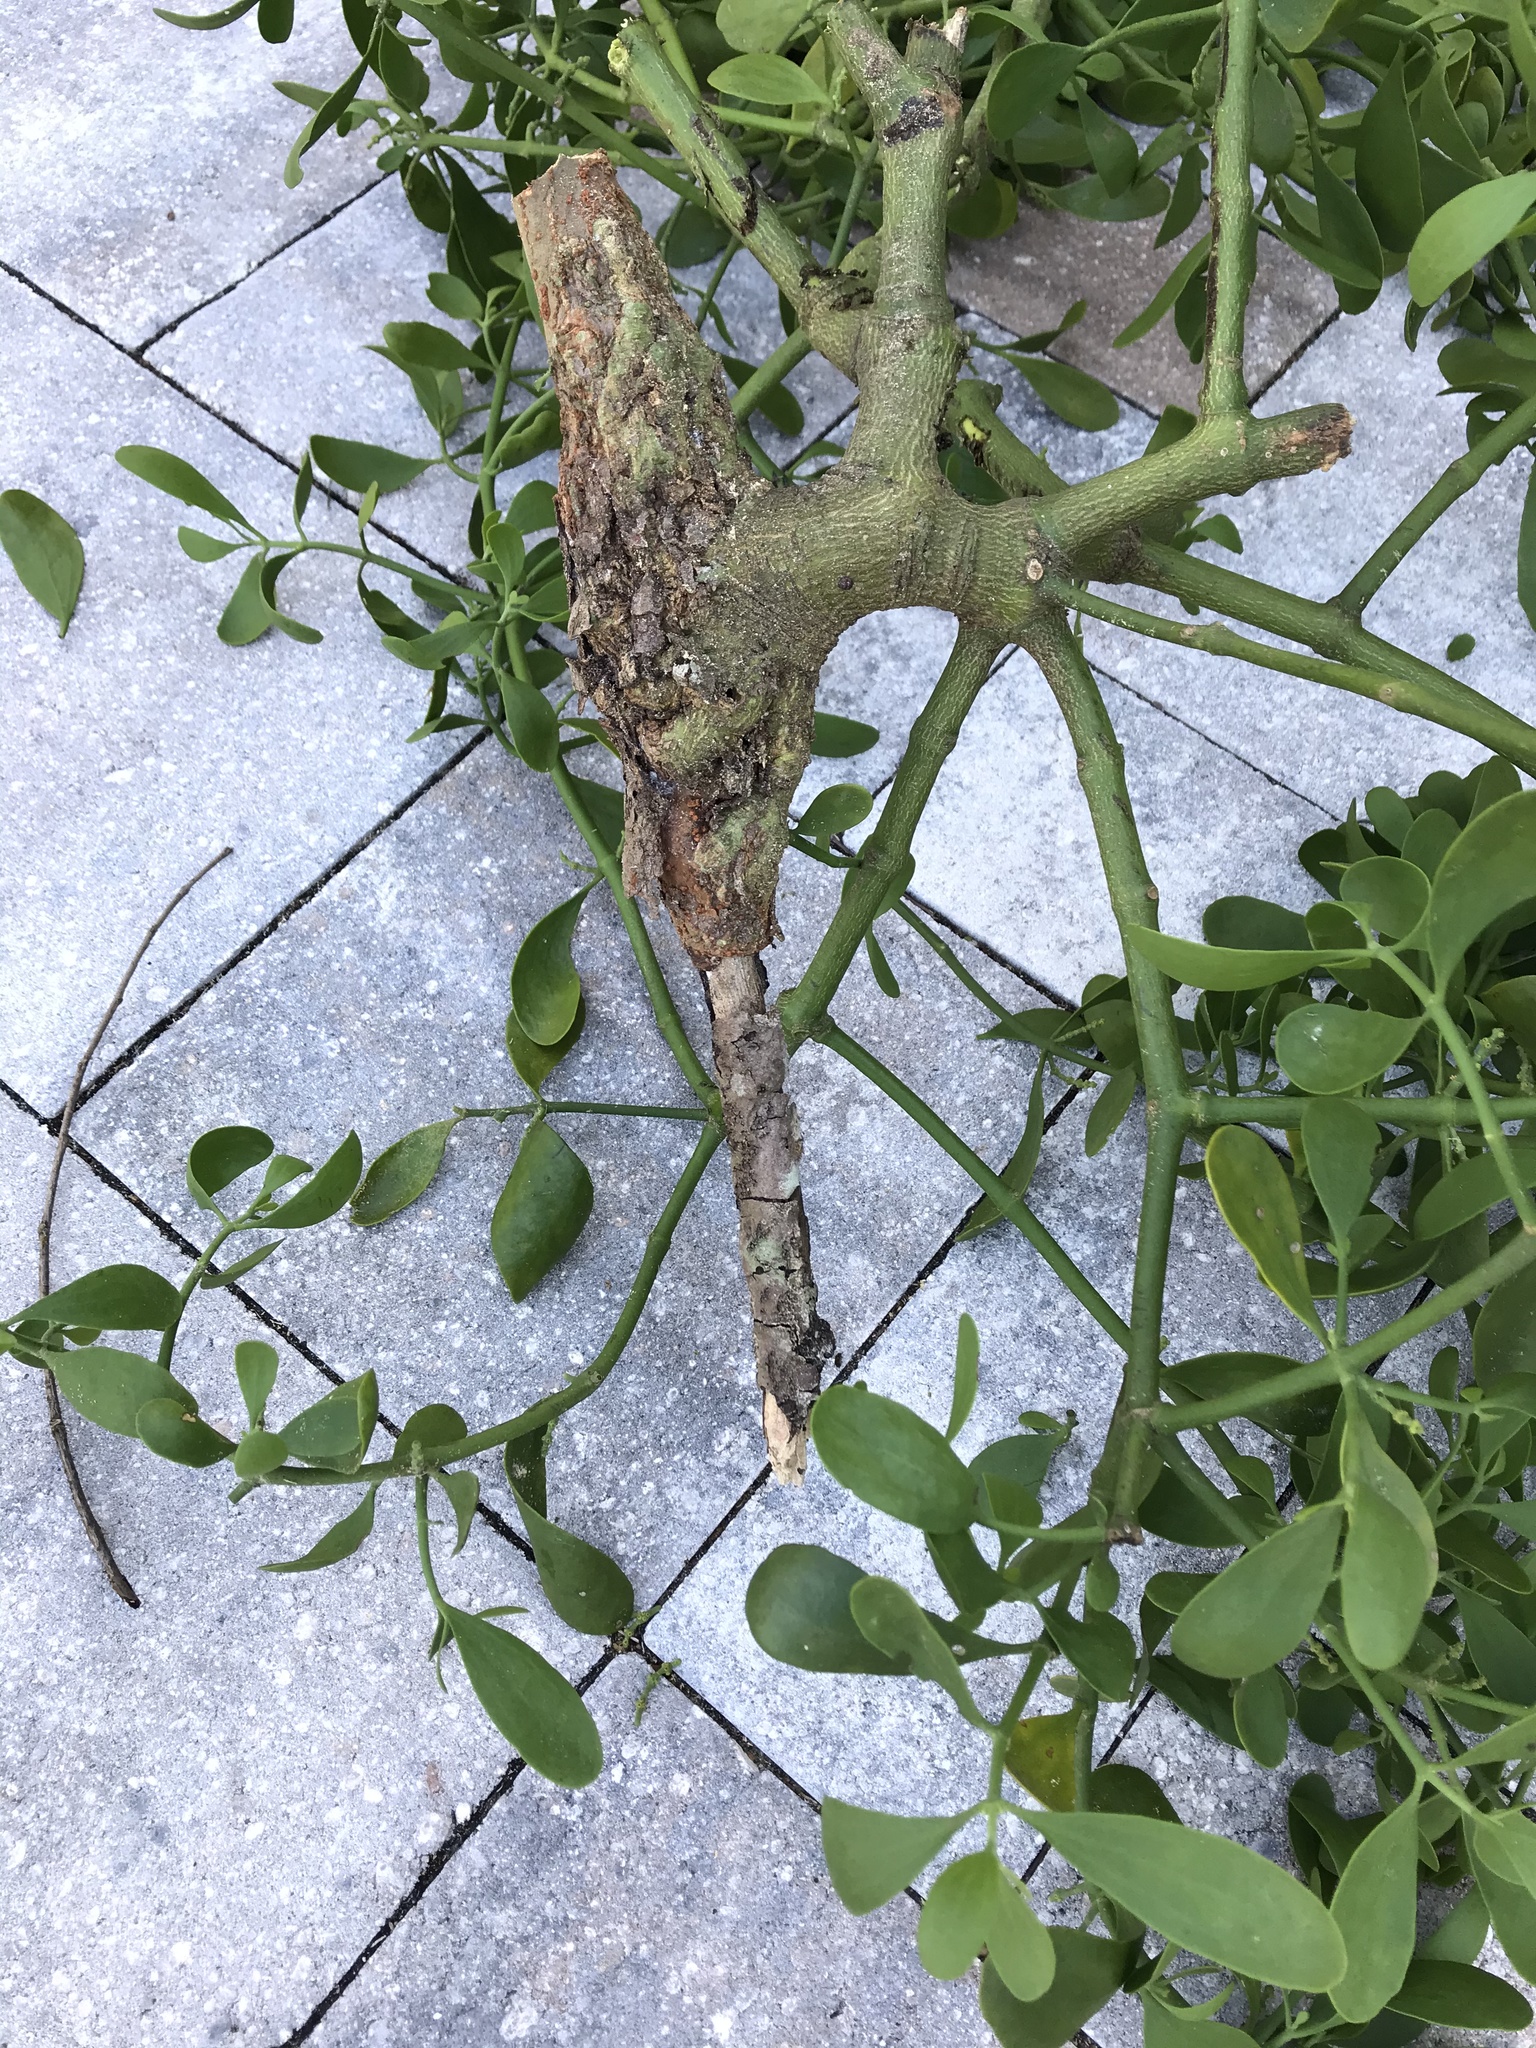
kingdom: Plantae
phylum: Tracheophyta
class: Magnoliopsida
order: Santalales
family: Viscaceae
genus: Phoradendron
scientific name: Phoradendron leucarpum
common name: Pacific mistletoe
